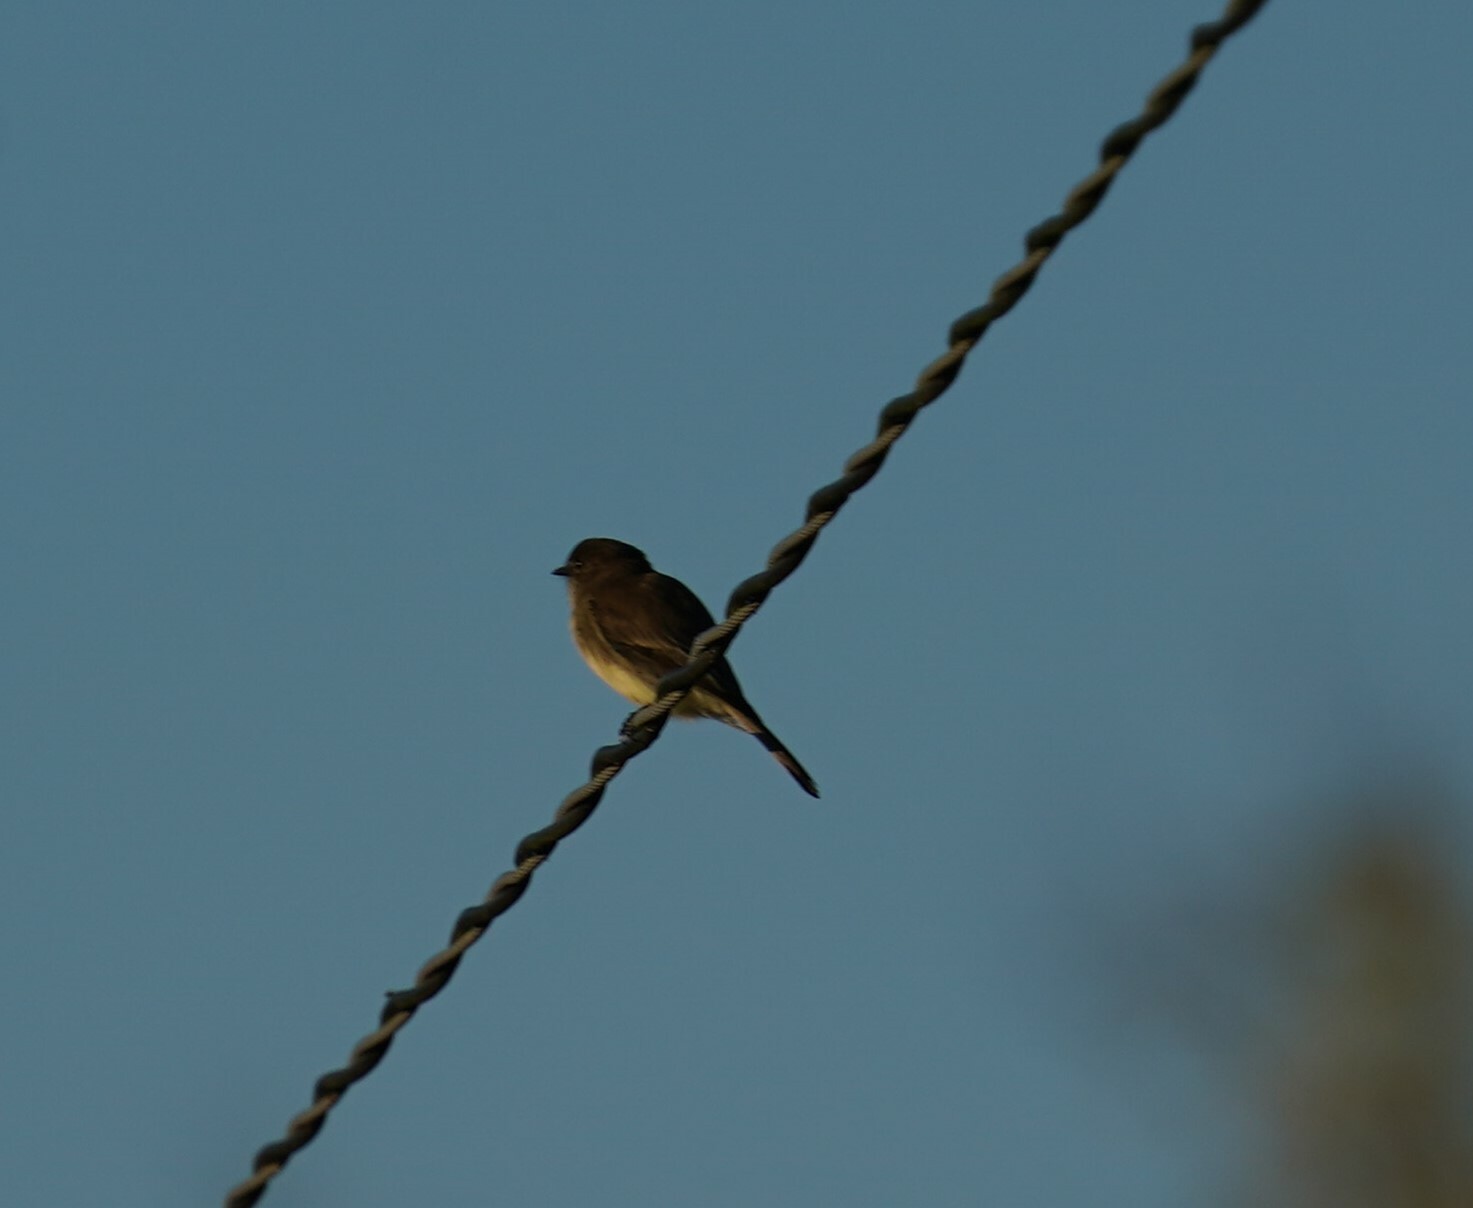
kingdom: Animalia
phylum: Chordata
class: Aves
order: Passeriformes
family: Tyrannidae
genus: Sayornis
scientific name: Sayornis phoebe
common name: Eastern phoebe
